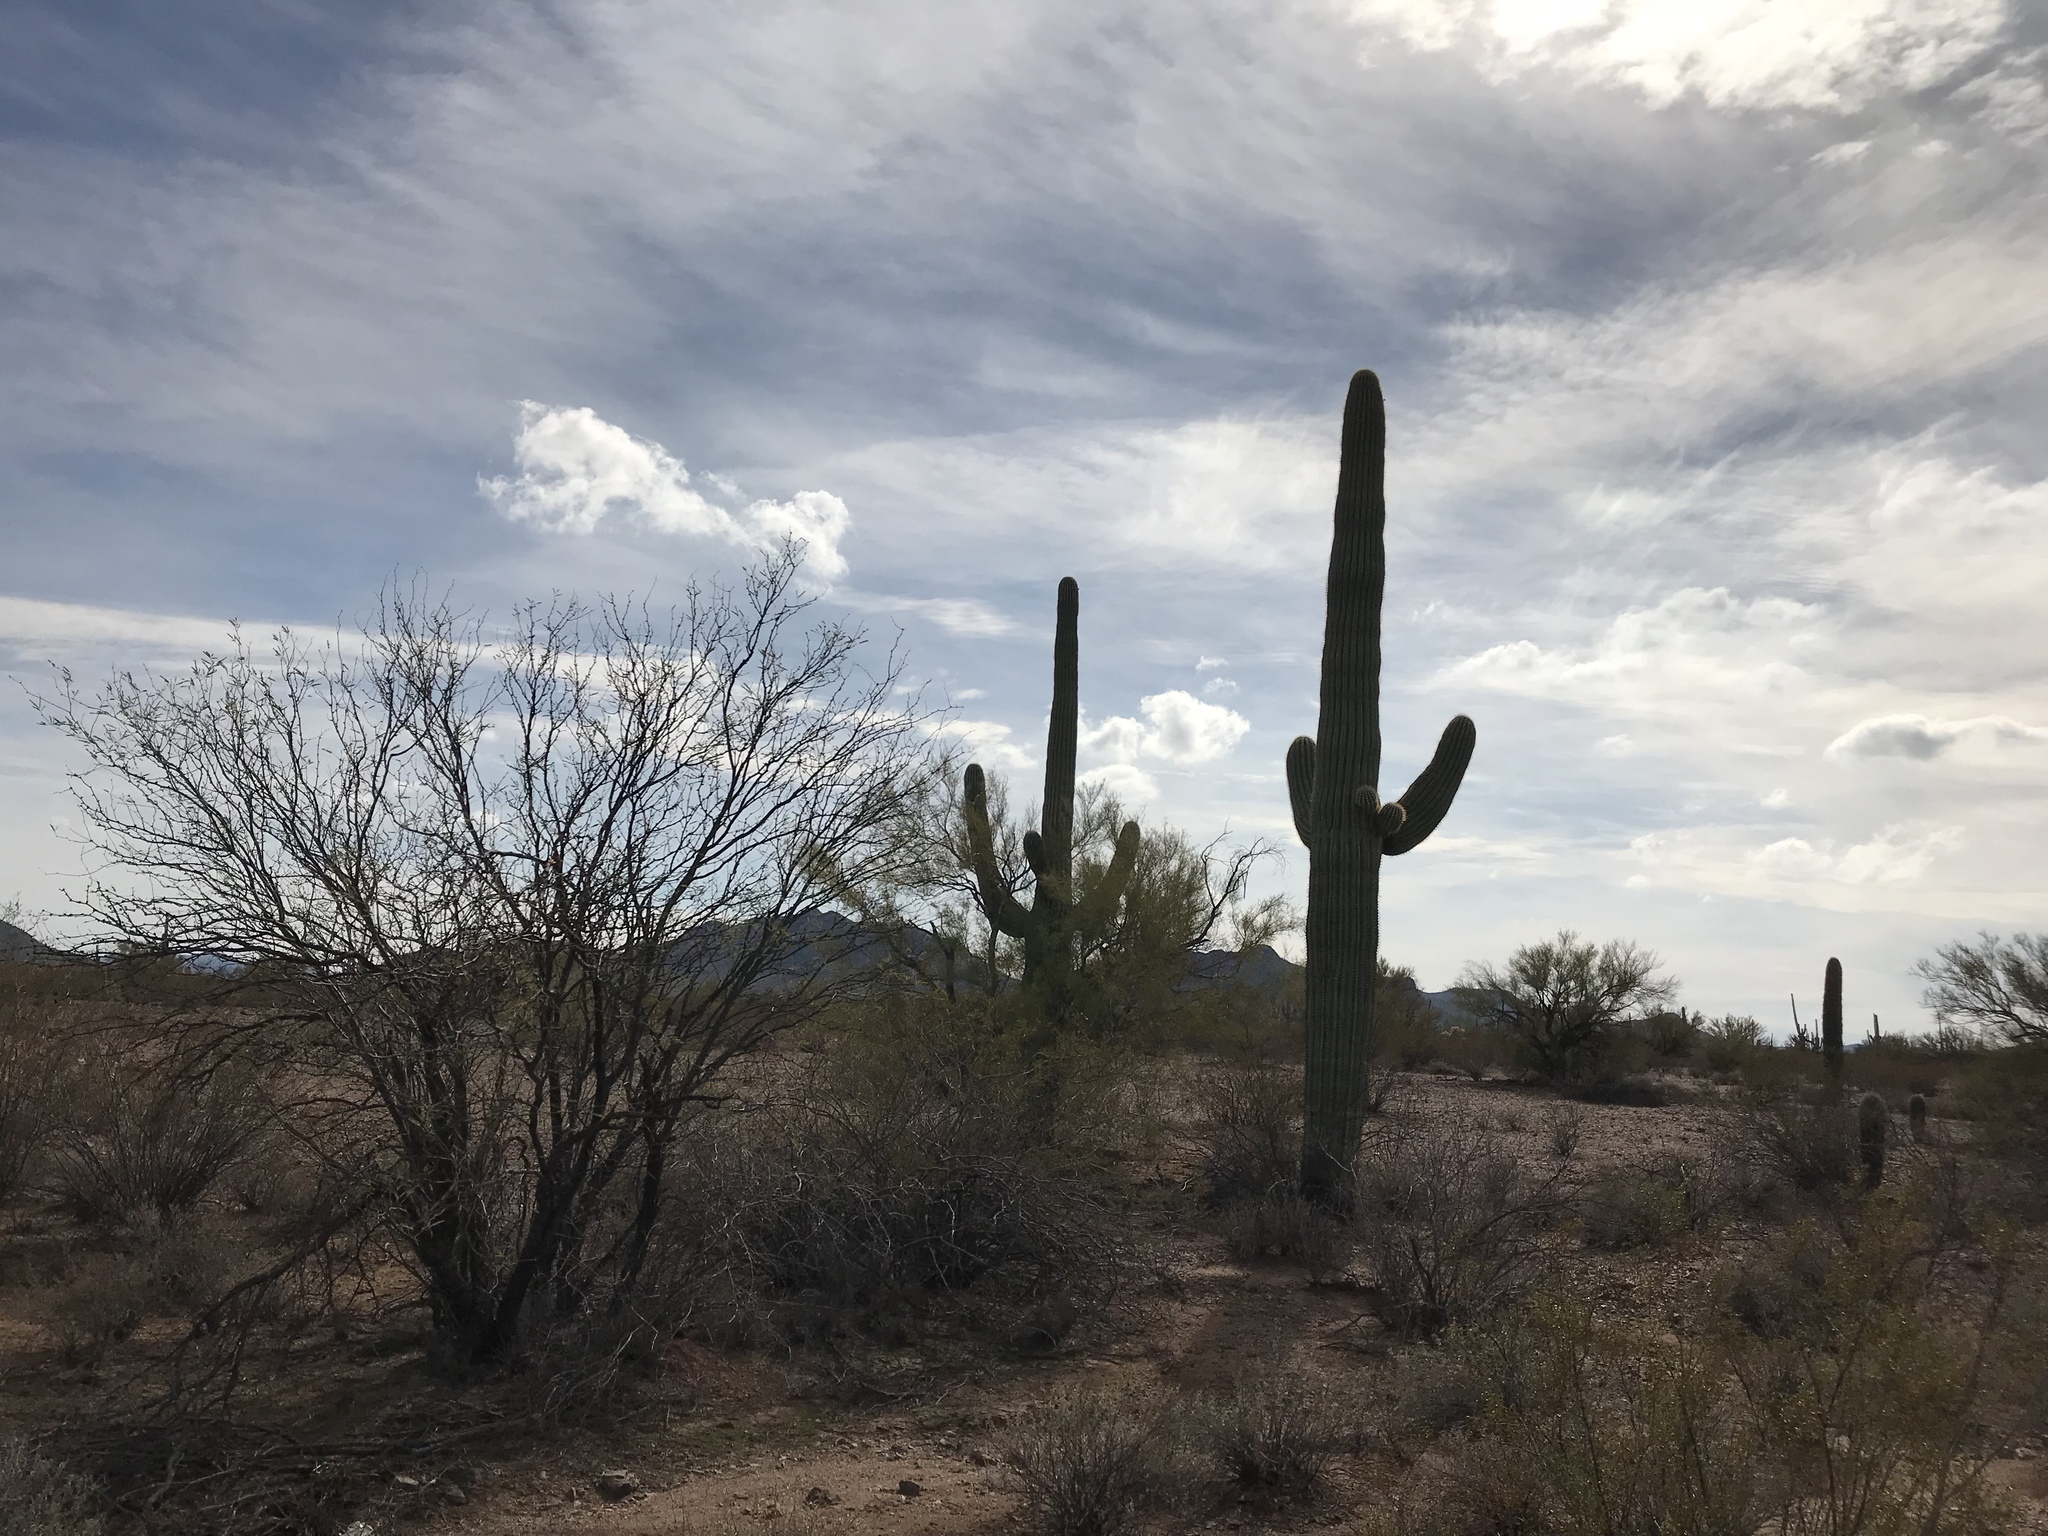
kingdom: Plantae
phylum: Tracheophyta
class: Magnoliopsida
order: Caryophyllales
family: Cactaceae
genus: Carnegiea
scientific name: Carnegiea gigantea
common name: Saguaro
